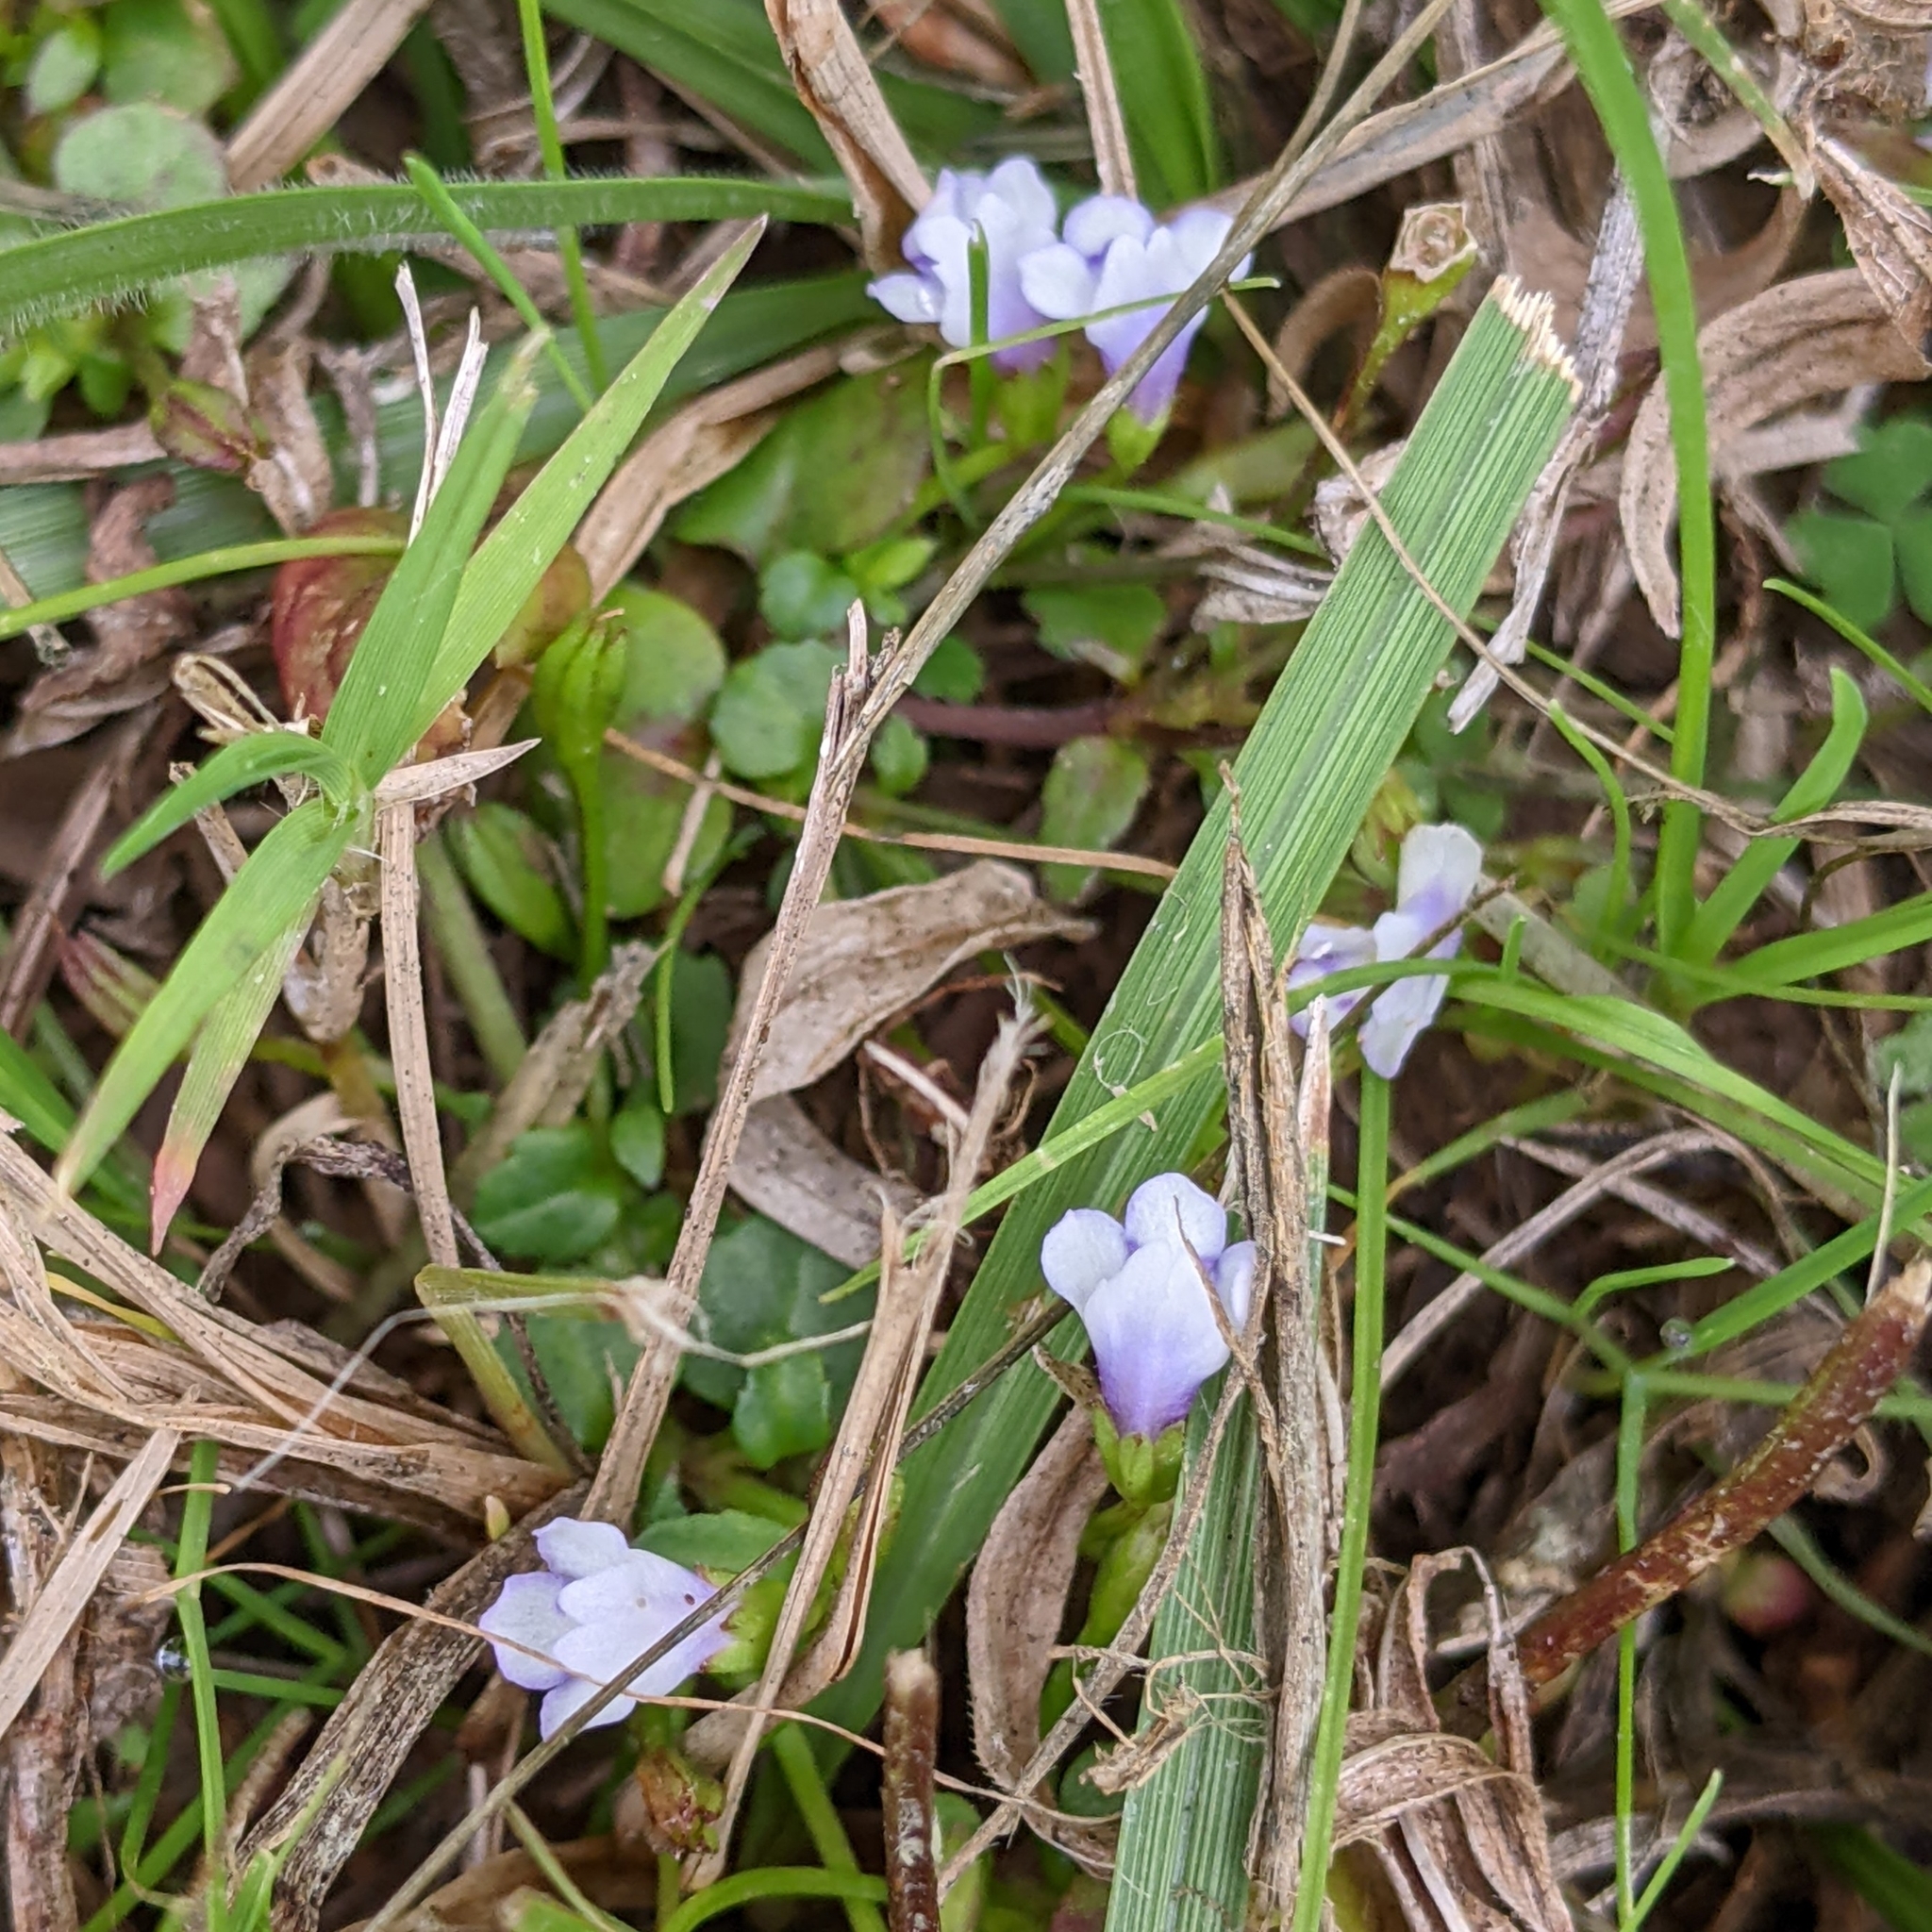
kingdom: Plantae
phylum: Tracheophyta
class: Magnoliopsida
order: Lamiales
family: Linderniaceae
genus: Torenia
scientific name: Torenia crustacea
